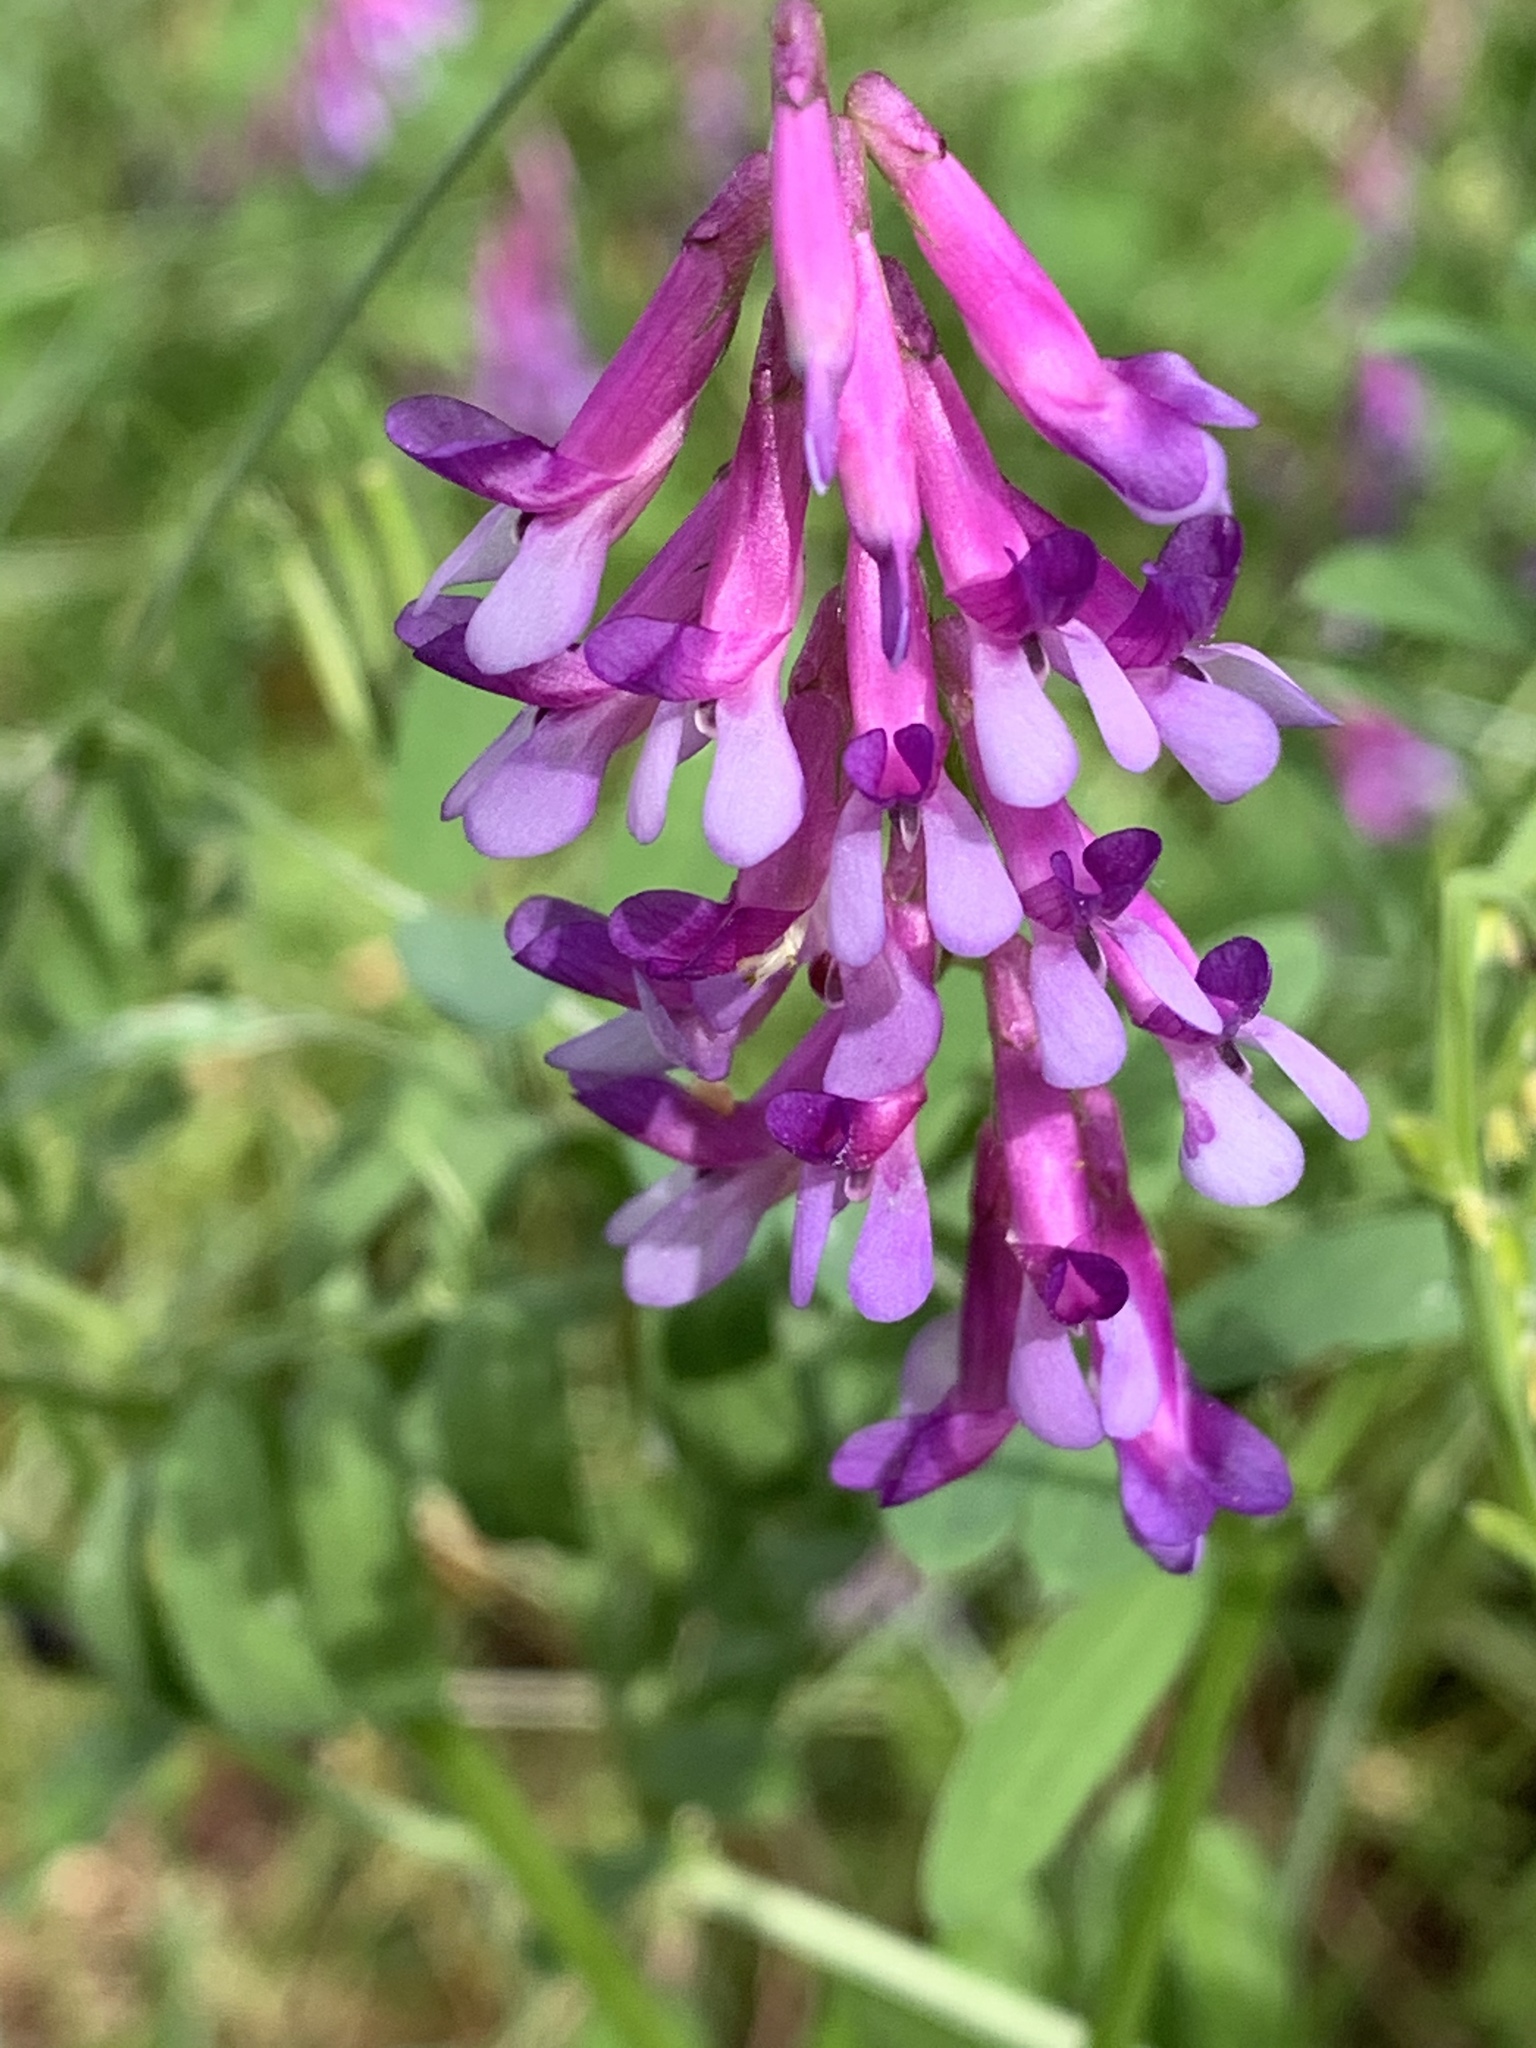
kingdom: Plantae
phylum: Tracheophyta
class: Magnoliopsida
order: Fabales
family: Fabaceae
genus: Vicia
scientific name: Vicia villosa
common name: Fodder vetch
